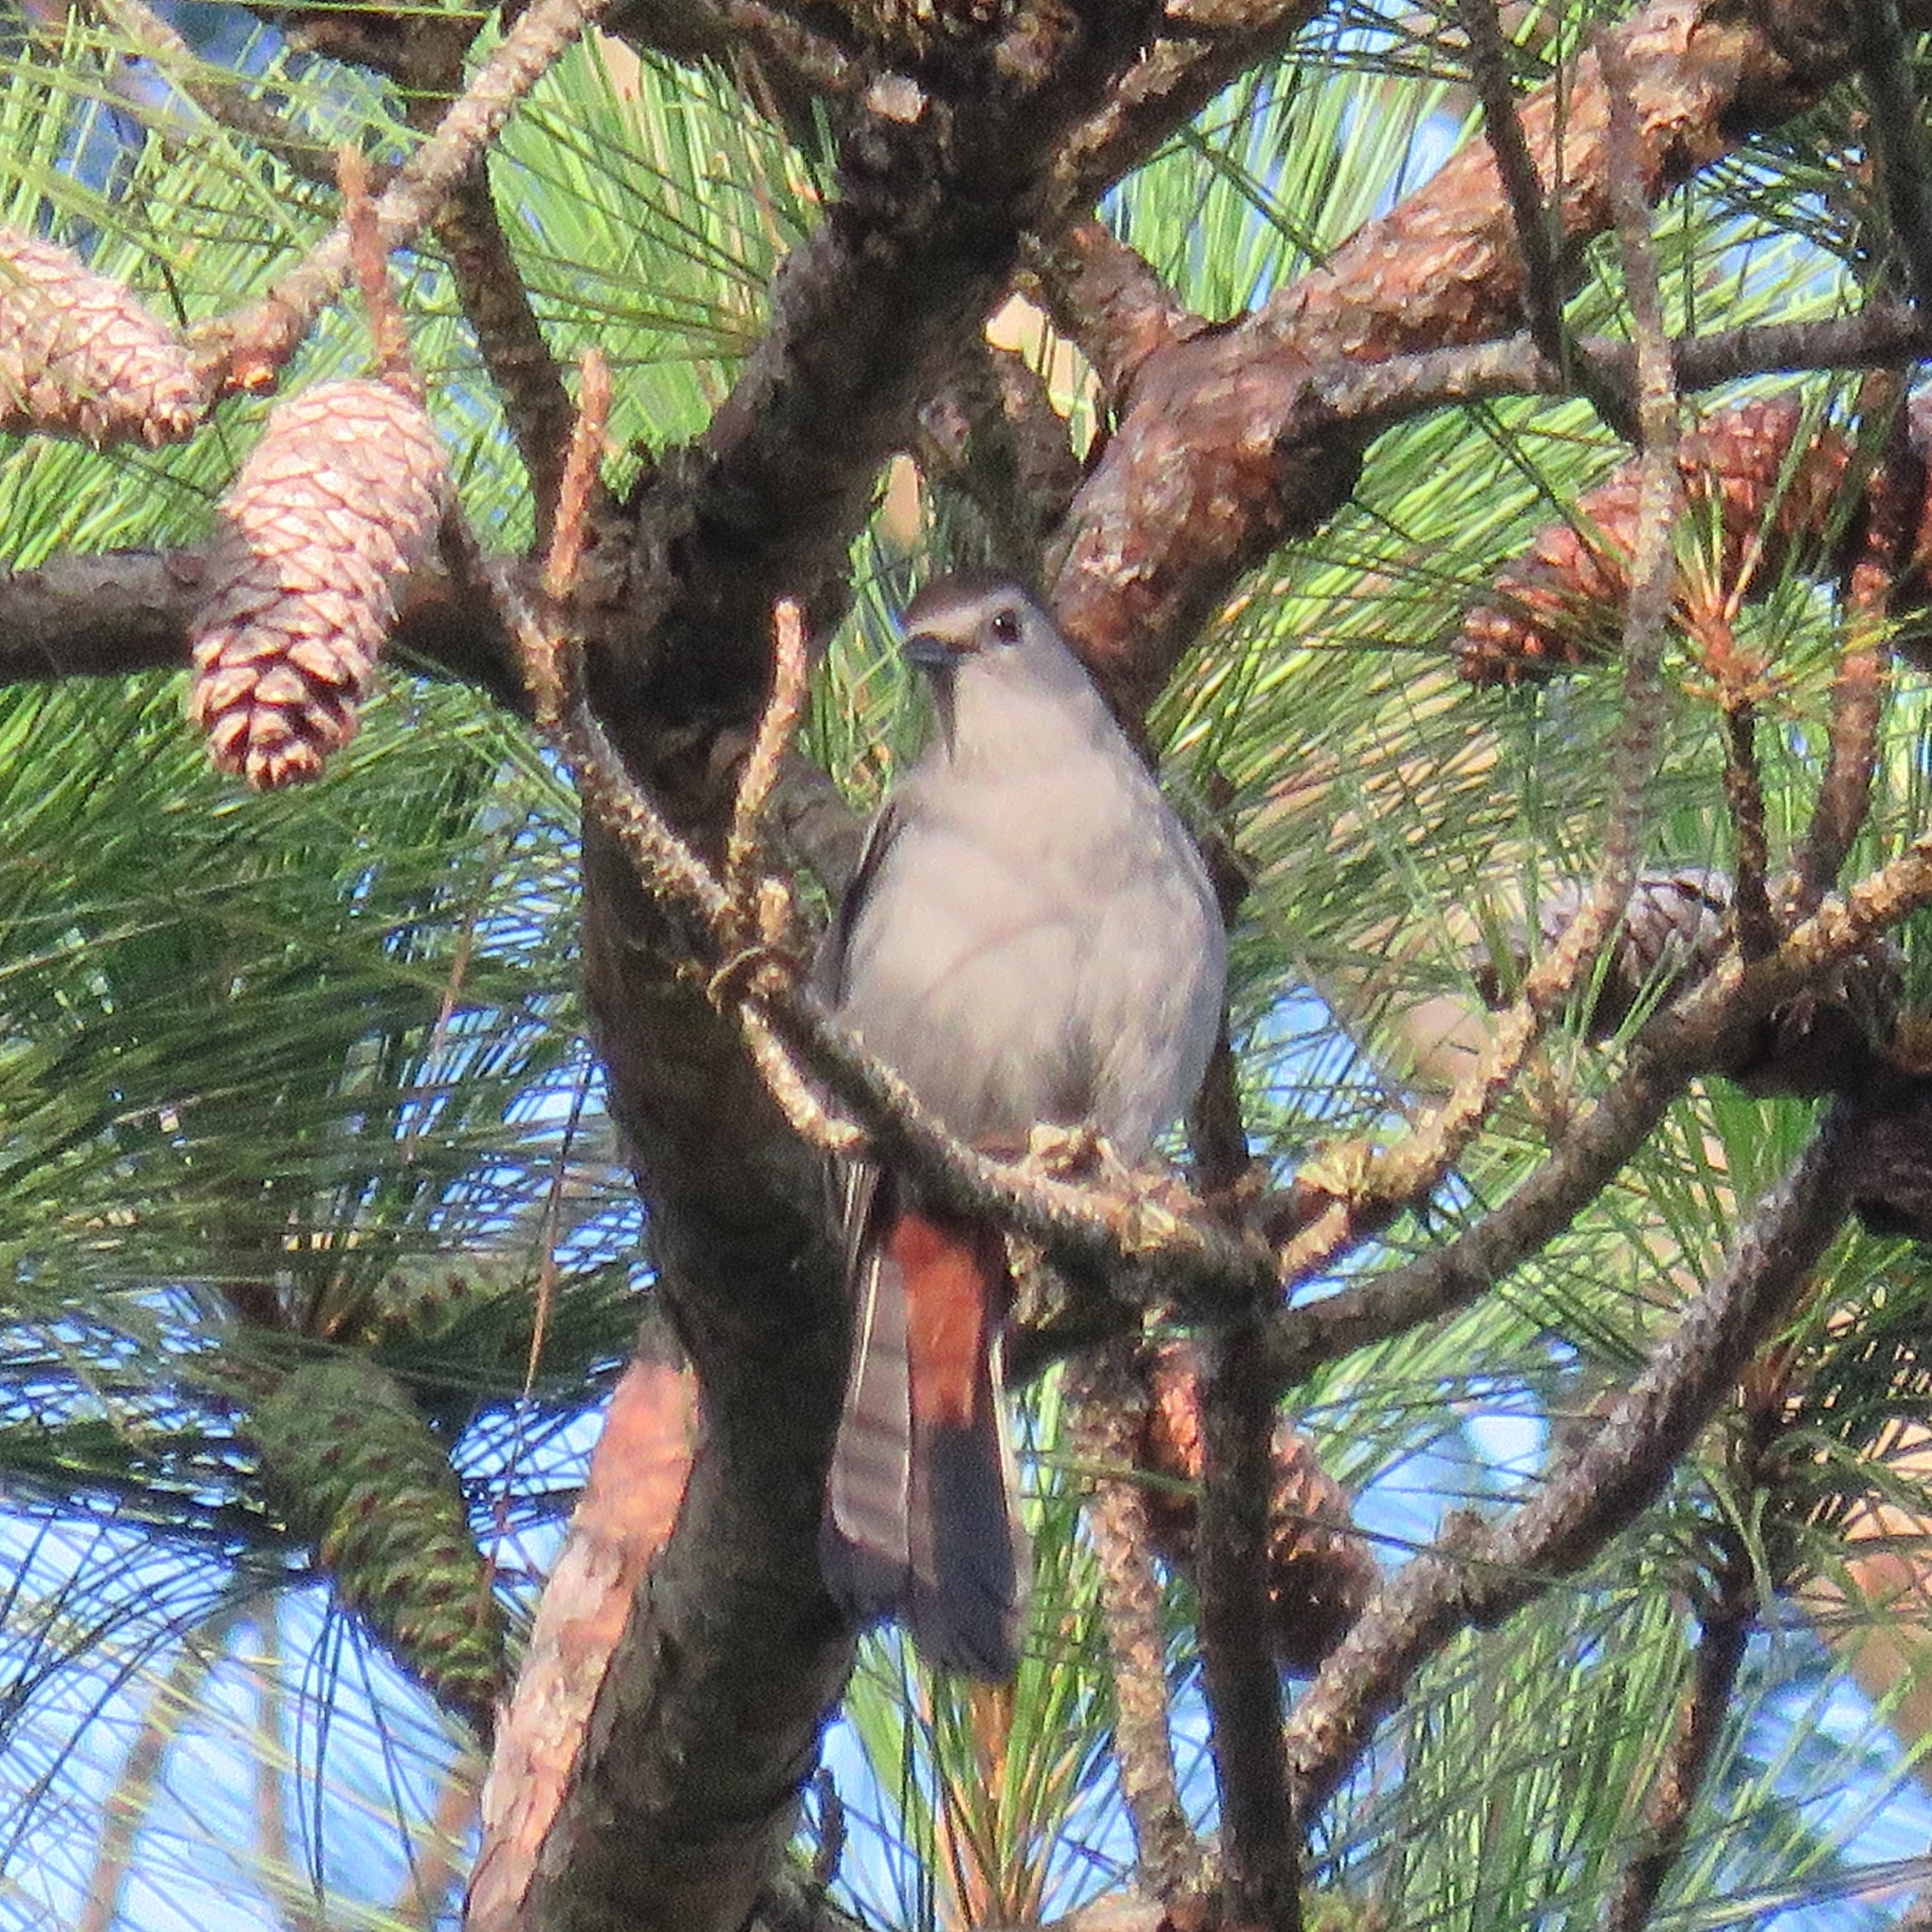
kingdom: Animalia
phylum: Chordata
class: Aves
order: Passeriformes
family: Mimidae
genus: Dumetella
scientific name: Dumetella carolinensis
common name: Gray catbird
